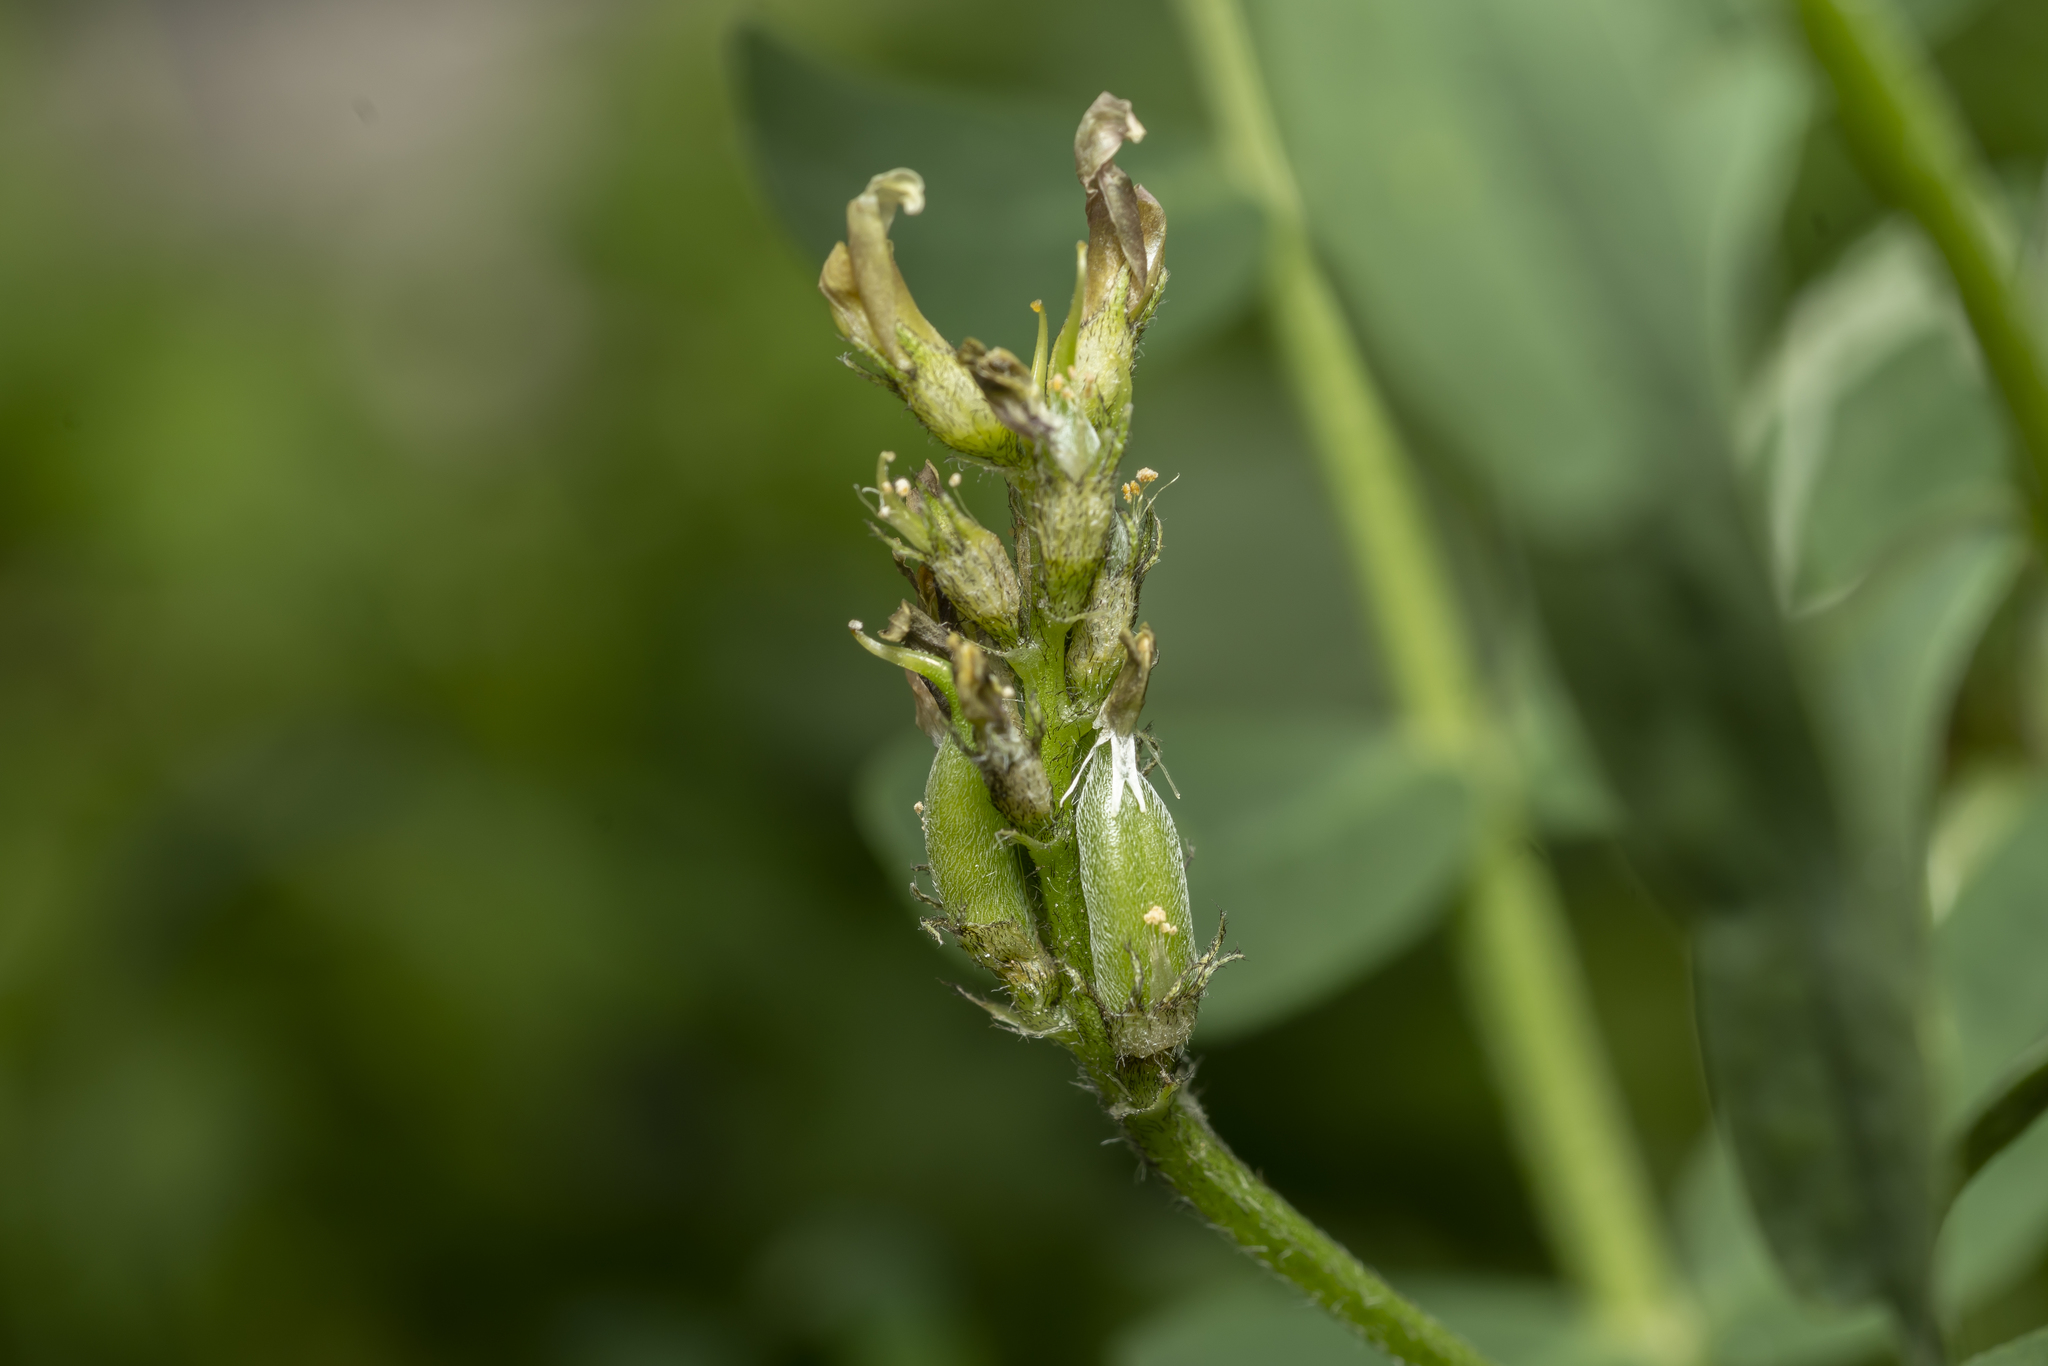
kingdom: Plantae
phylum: Tracheophyta
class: Magnoliopsida
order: Fabales
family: Fabaceae
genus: Astragalus
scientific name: Astragalus boeticus
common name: Milk-vetch
